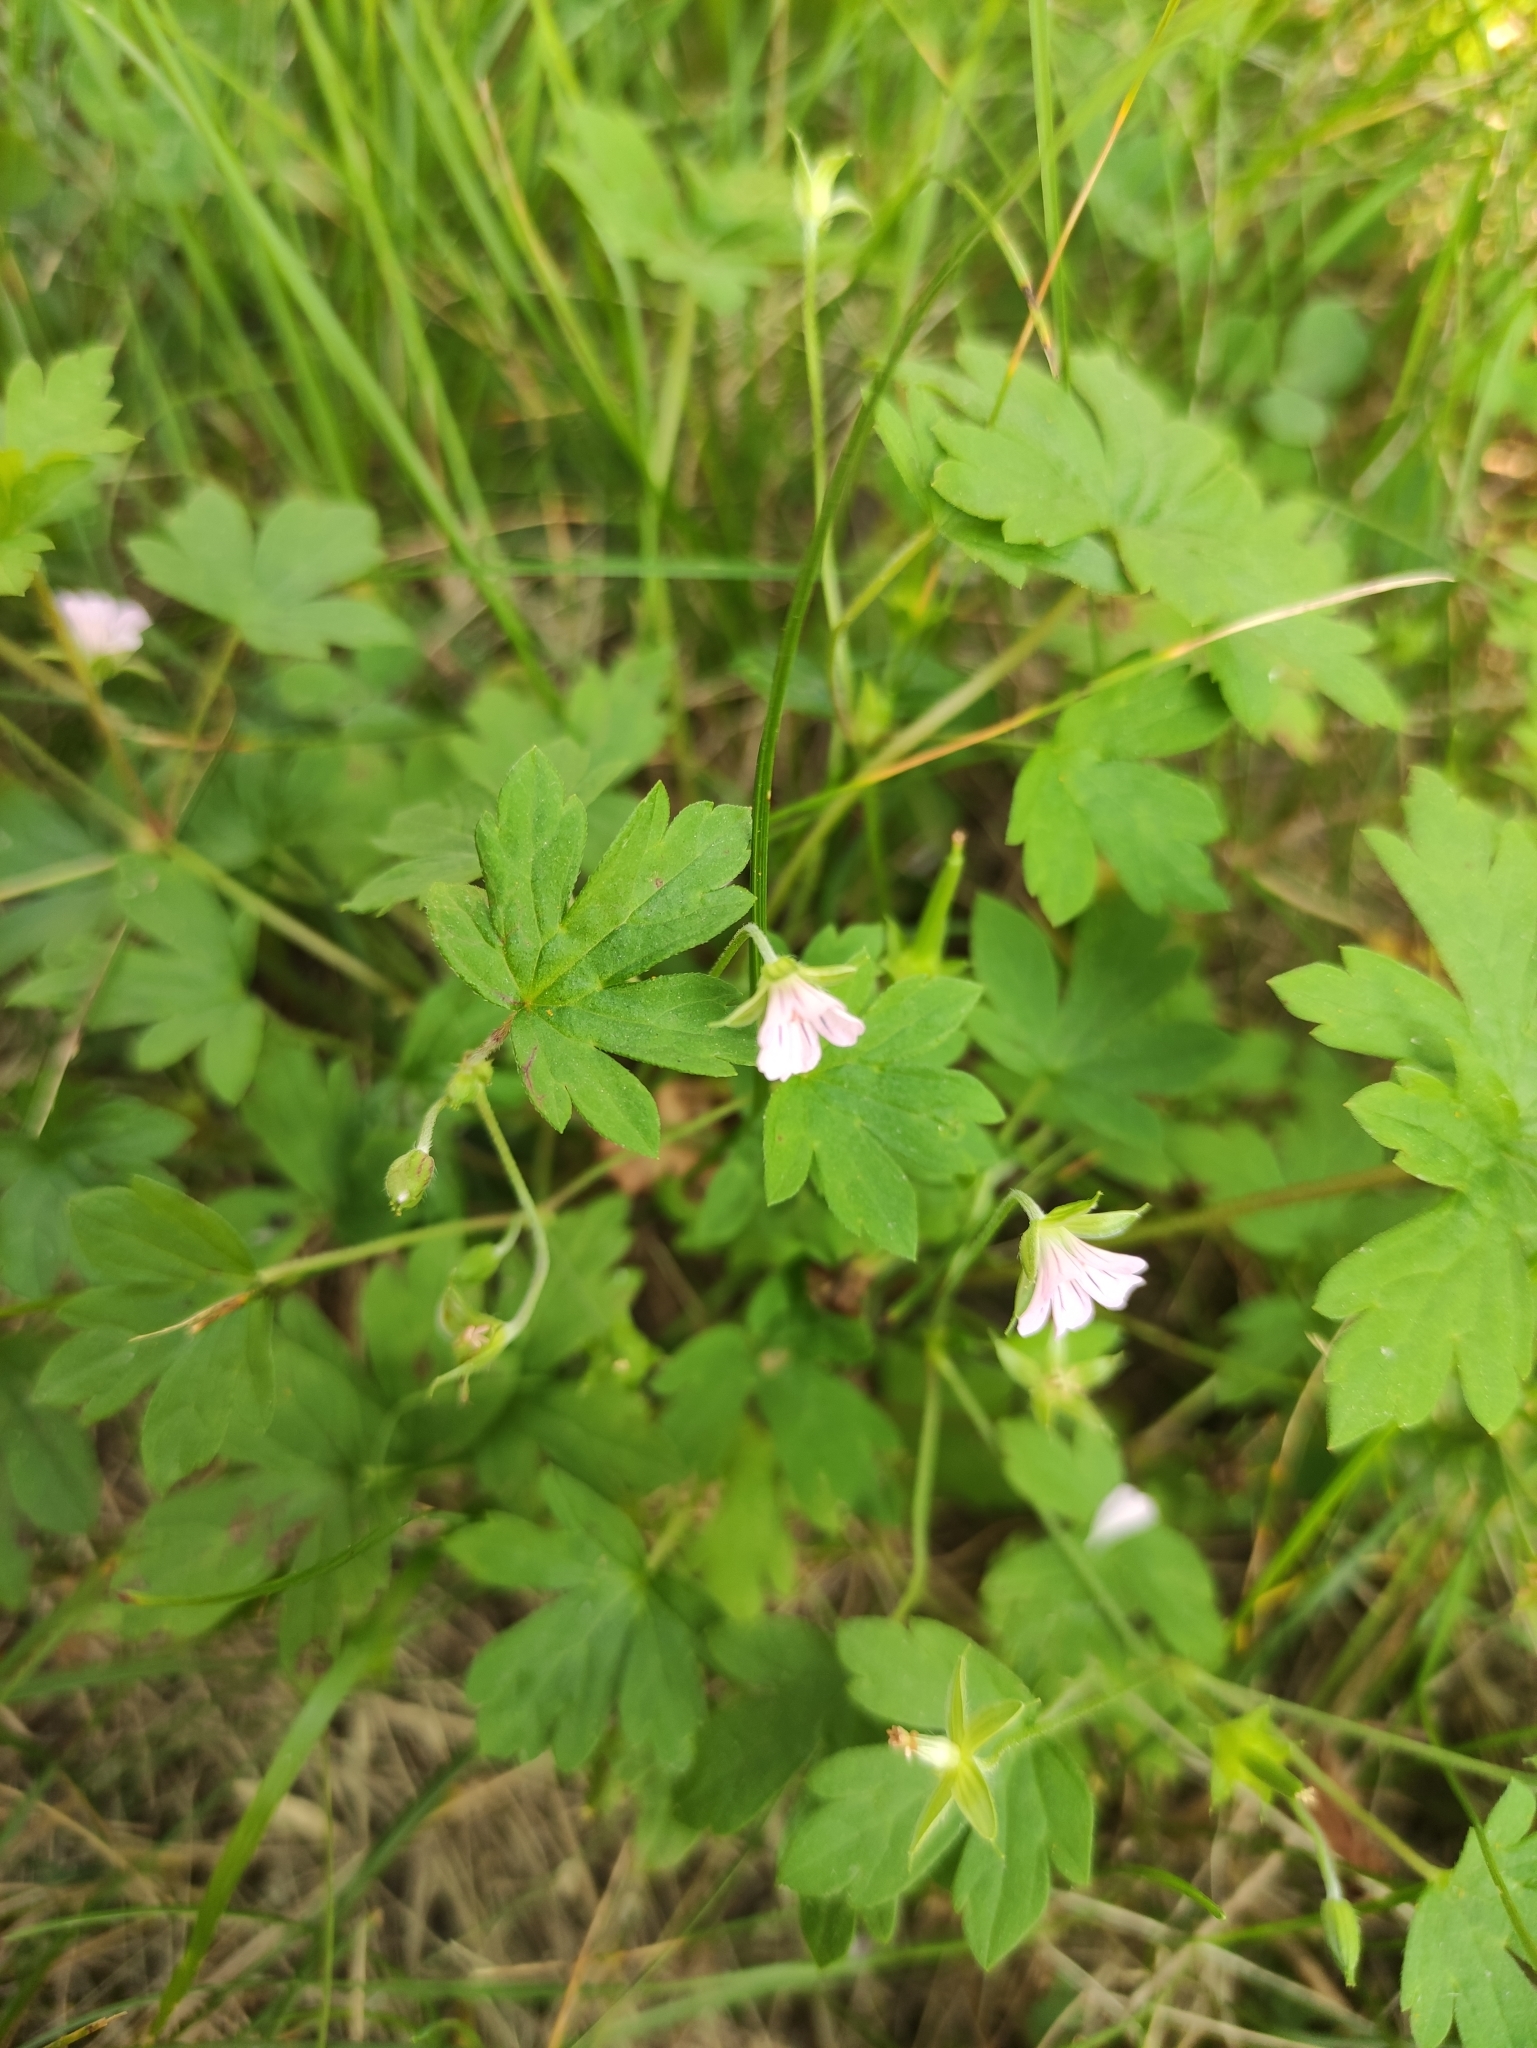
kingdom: Plantae
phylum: Tracheophyta
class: Magnoliopsida
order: Geraniales
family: Geraniaceae
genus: Geranium
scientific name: Geranium sibiricum
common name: Siberian crane's-bill
